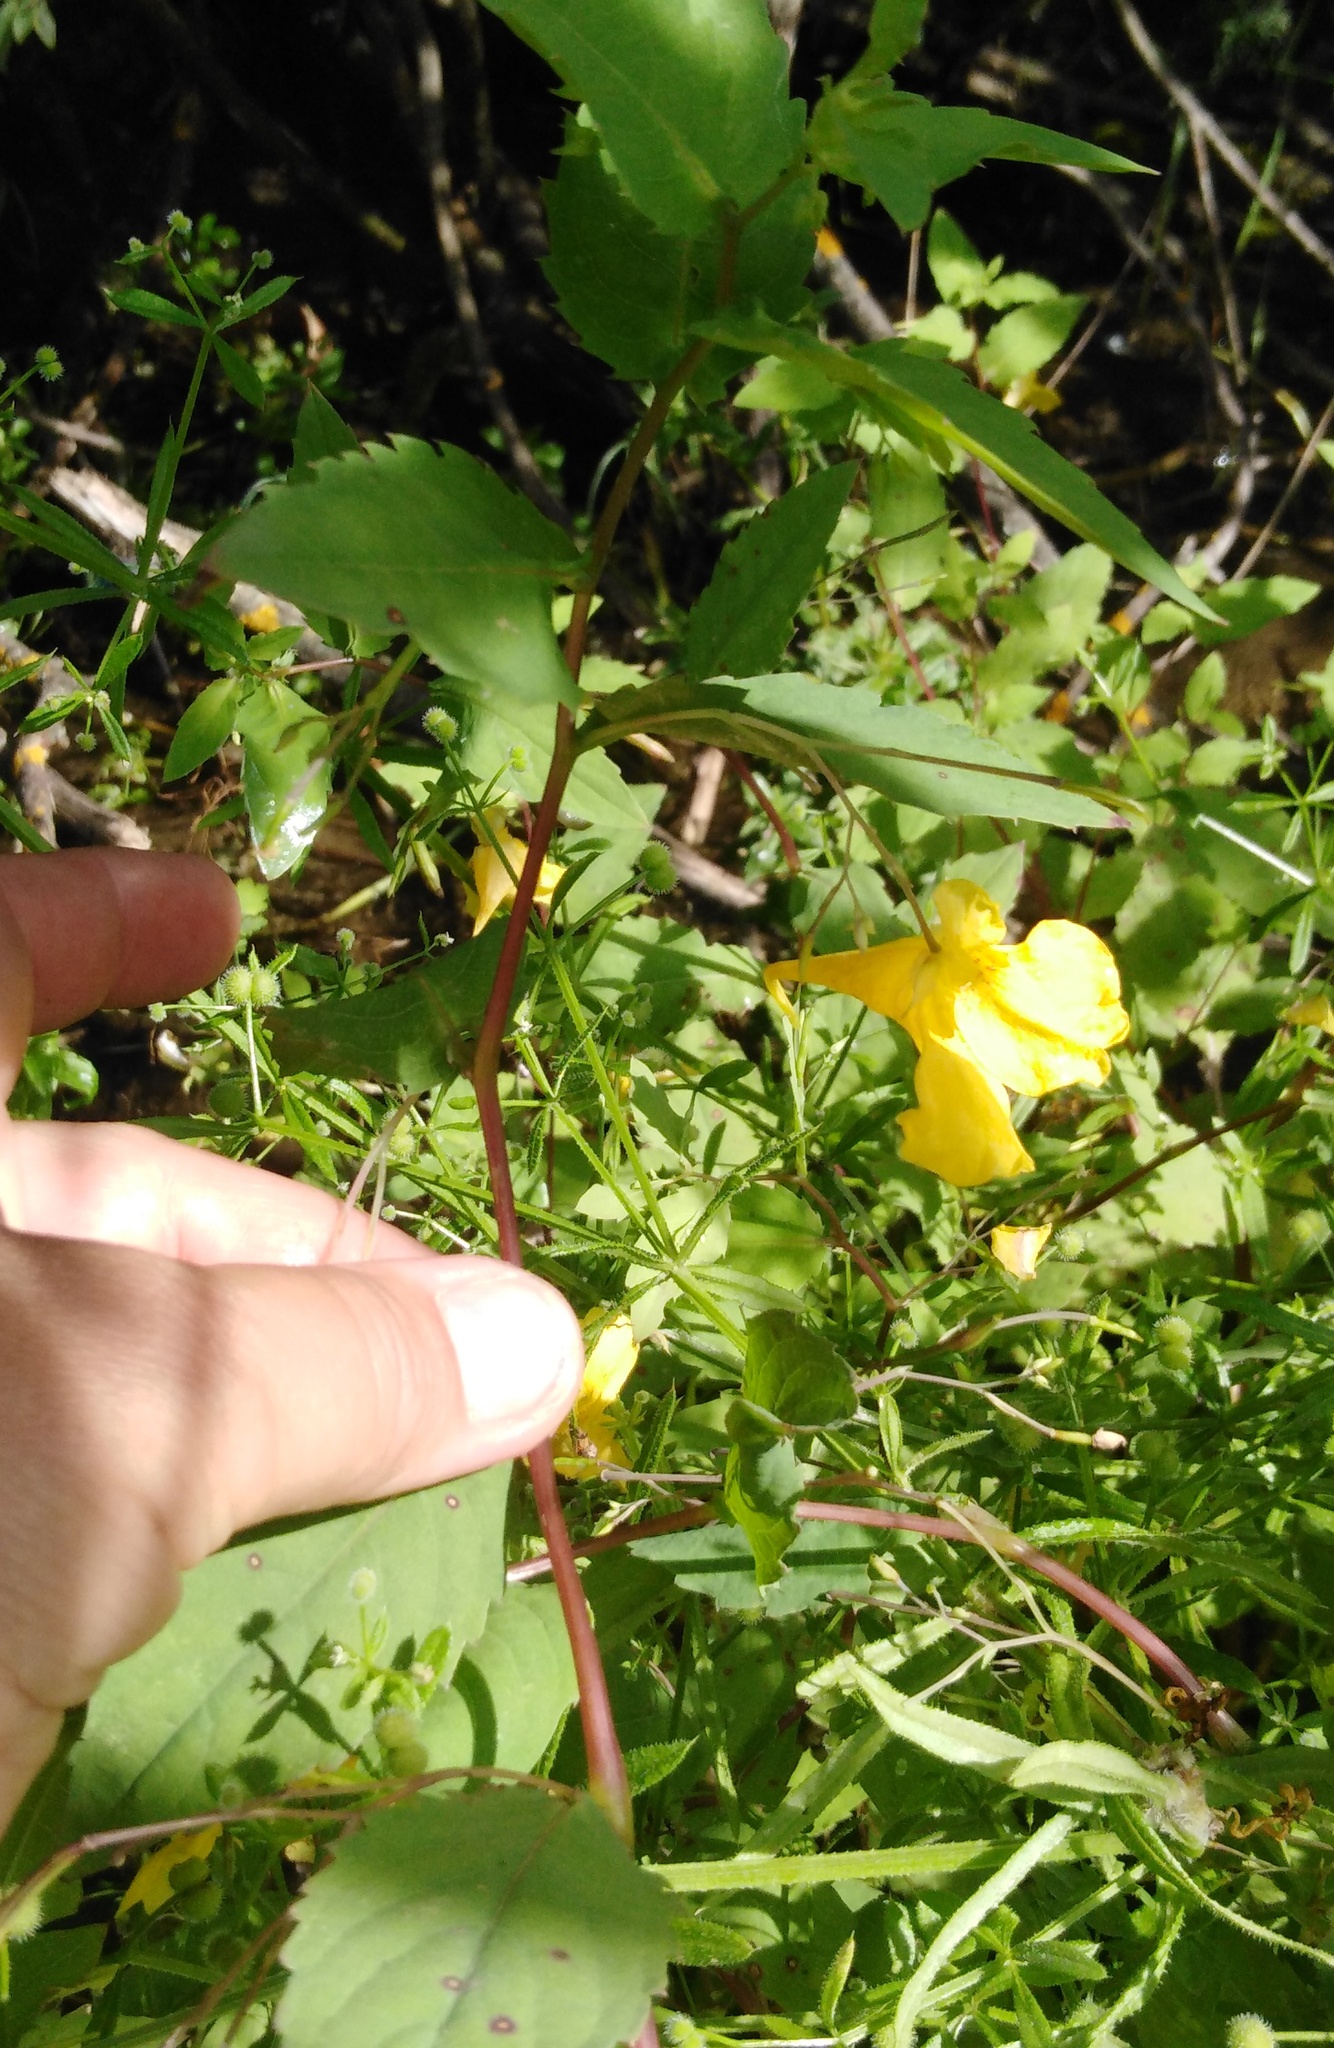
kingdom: Plantae
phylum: Tracheophyta
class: Magnoliopsida
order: Ericales
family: Balsaminaceae
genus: Impatiens
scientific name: Impatiens noli-tangere
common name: Touch-me-not balsam
